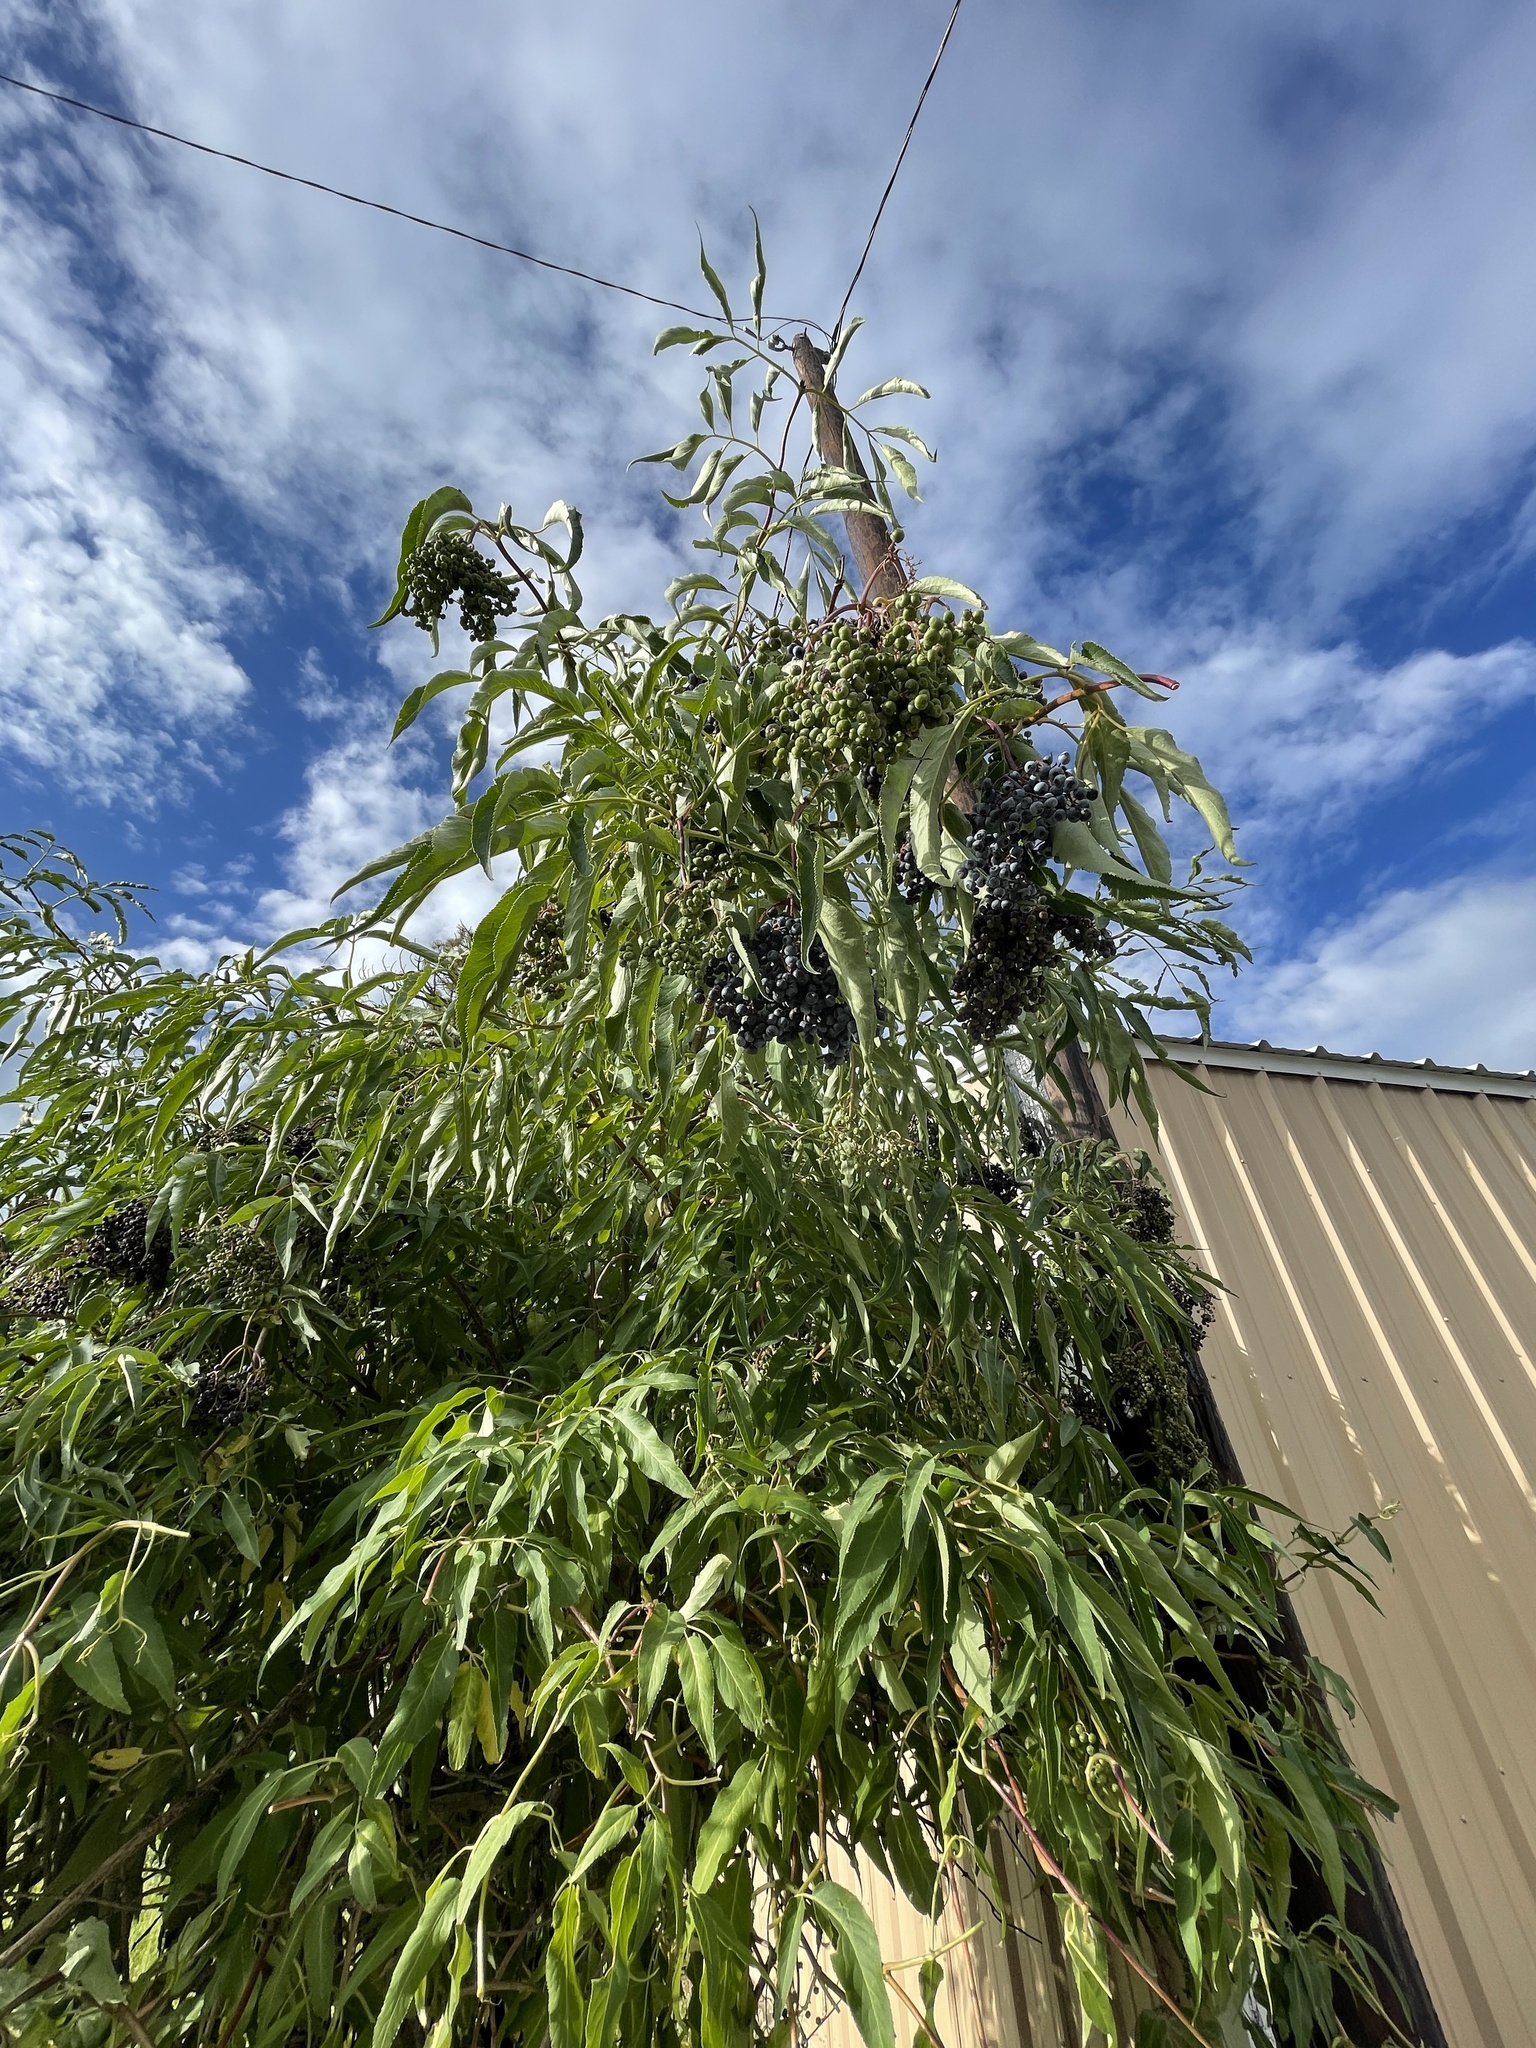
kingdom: Plantae
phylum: Tracheophyta
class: Magnoliopsida
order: Dipsacales
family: Viburnaceae
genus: Sambucus
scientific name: Sambucus cerulea
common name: Blue elder
